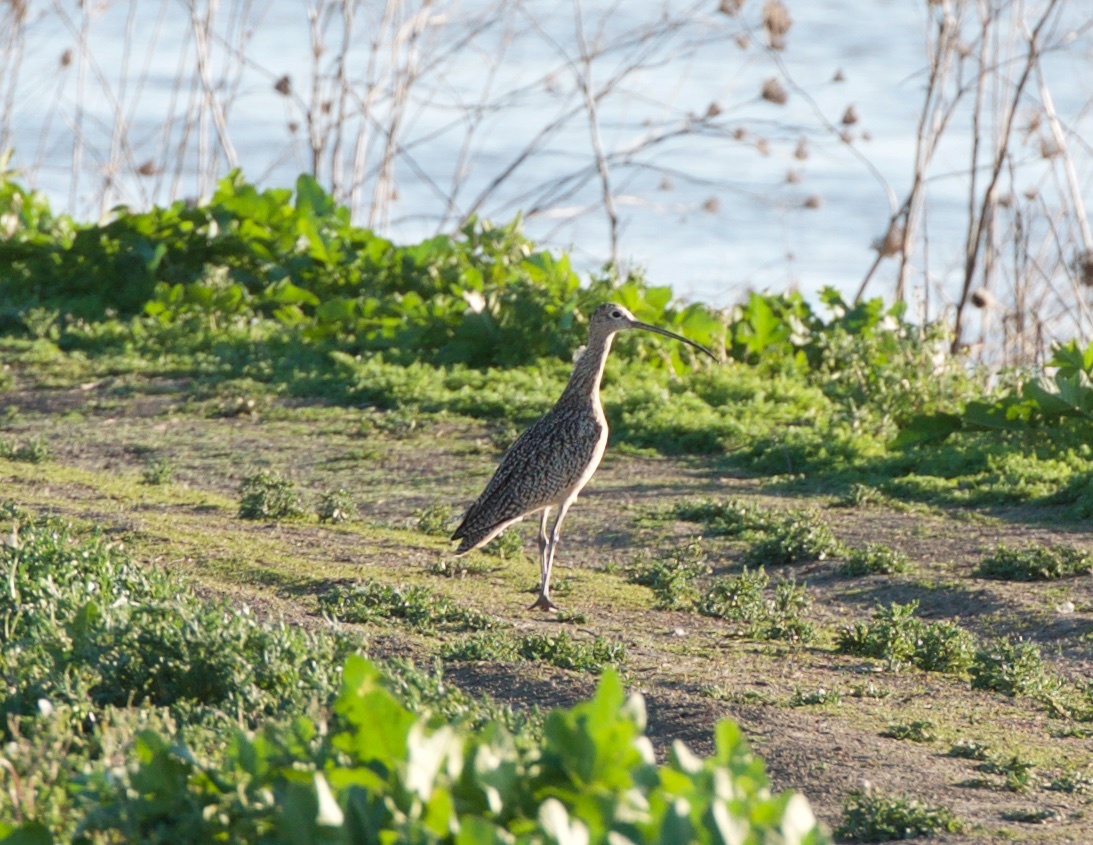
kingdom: Animalia
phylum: Chordata
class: Aves
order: Charadriiformes
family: Scolopacidae
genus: Numenius
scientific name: Numenius americanus
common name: Long-billed curlew
